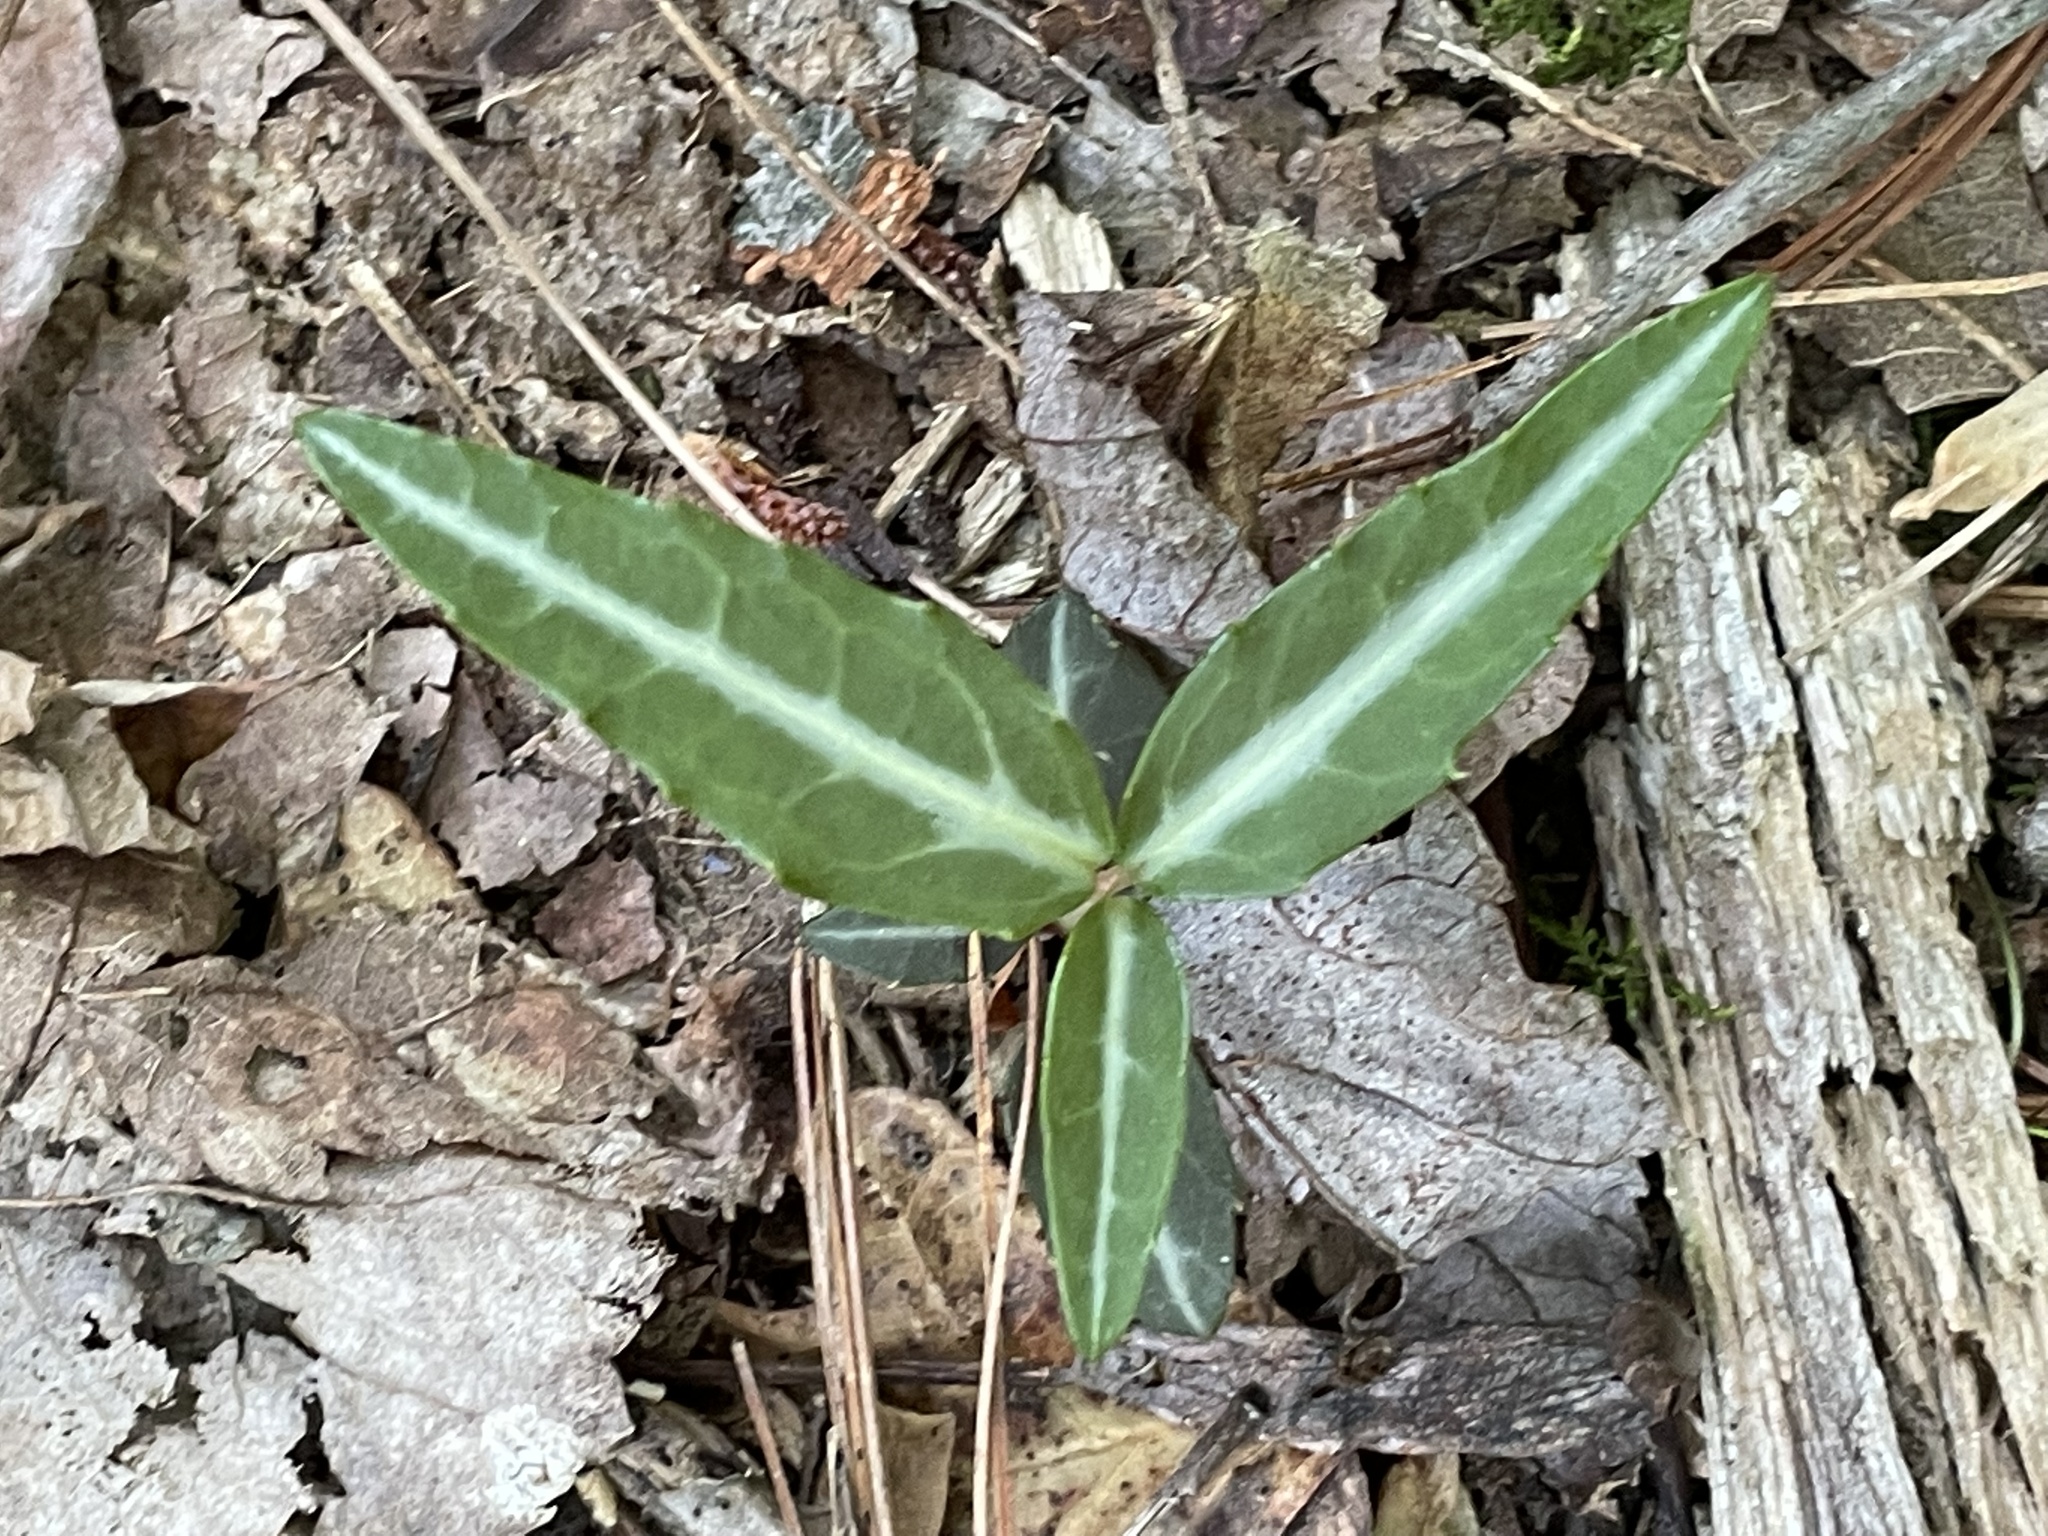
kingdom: Plantae
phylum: Tracheophyta
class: Magnoliopsida
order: Ericales
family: Ericaceae
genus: Chimaphila
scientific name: Chimaphila maculata
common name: Spotted pipsissewa
